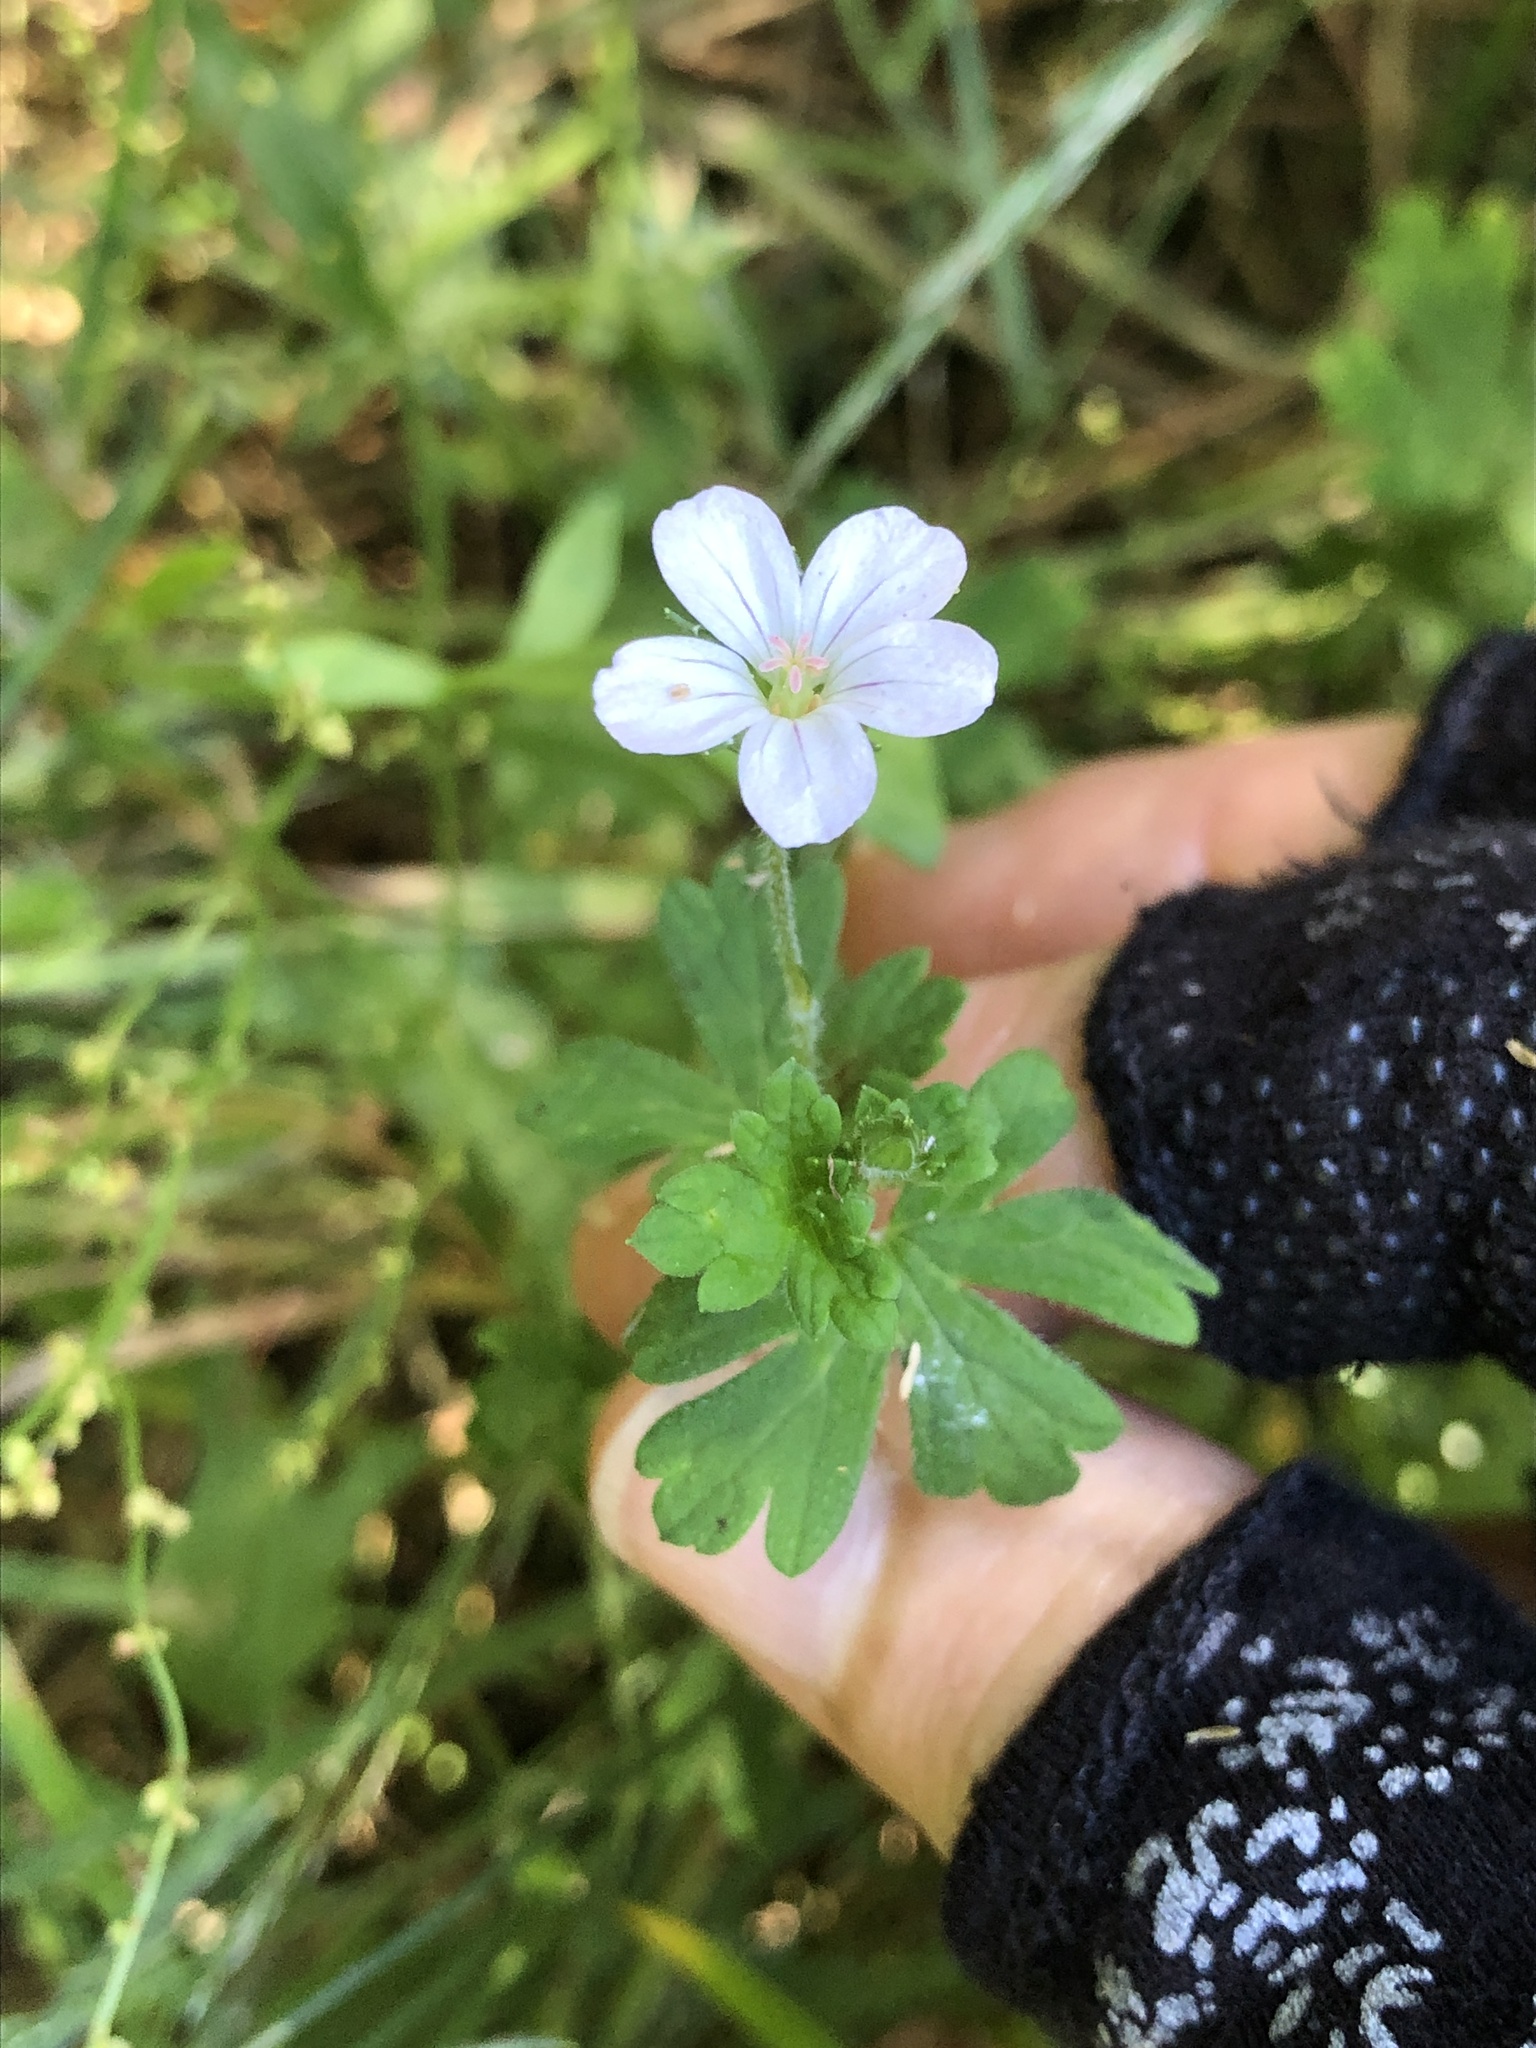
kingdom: Plantae
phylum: Tracheophyta
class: Magnoliopsida
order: Geraniales
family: Geraniaceae
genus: Geranium
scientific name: Geranium potentilloides
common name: Cinquefoil geranium
